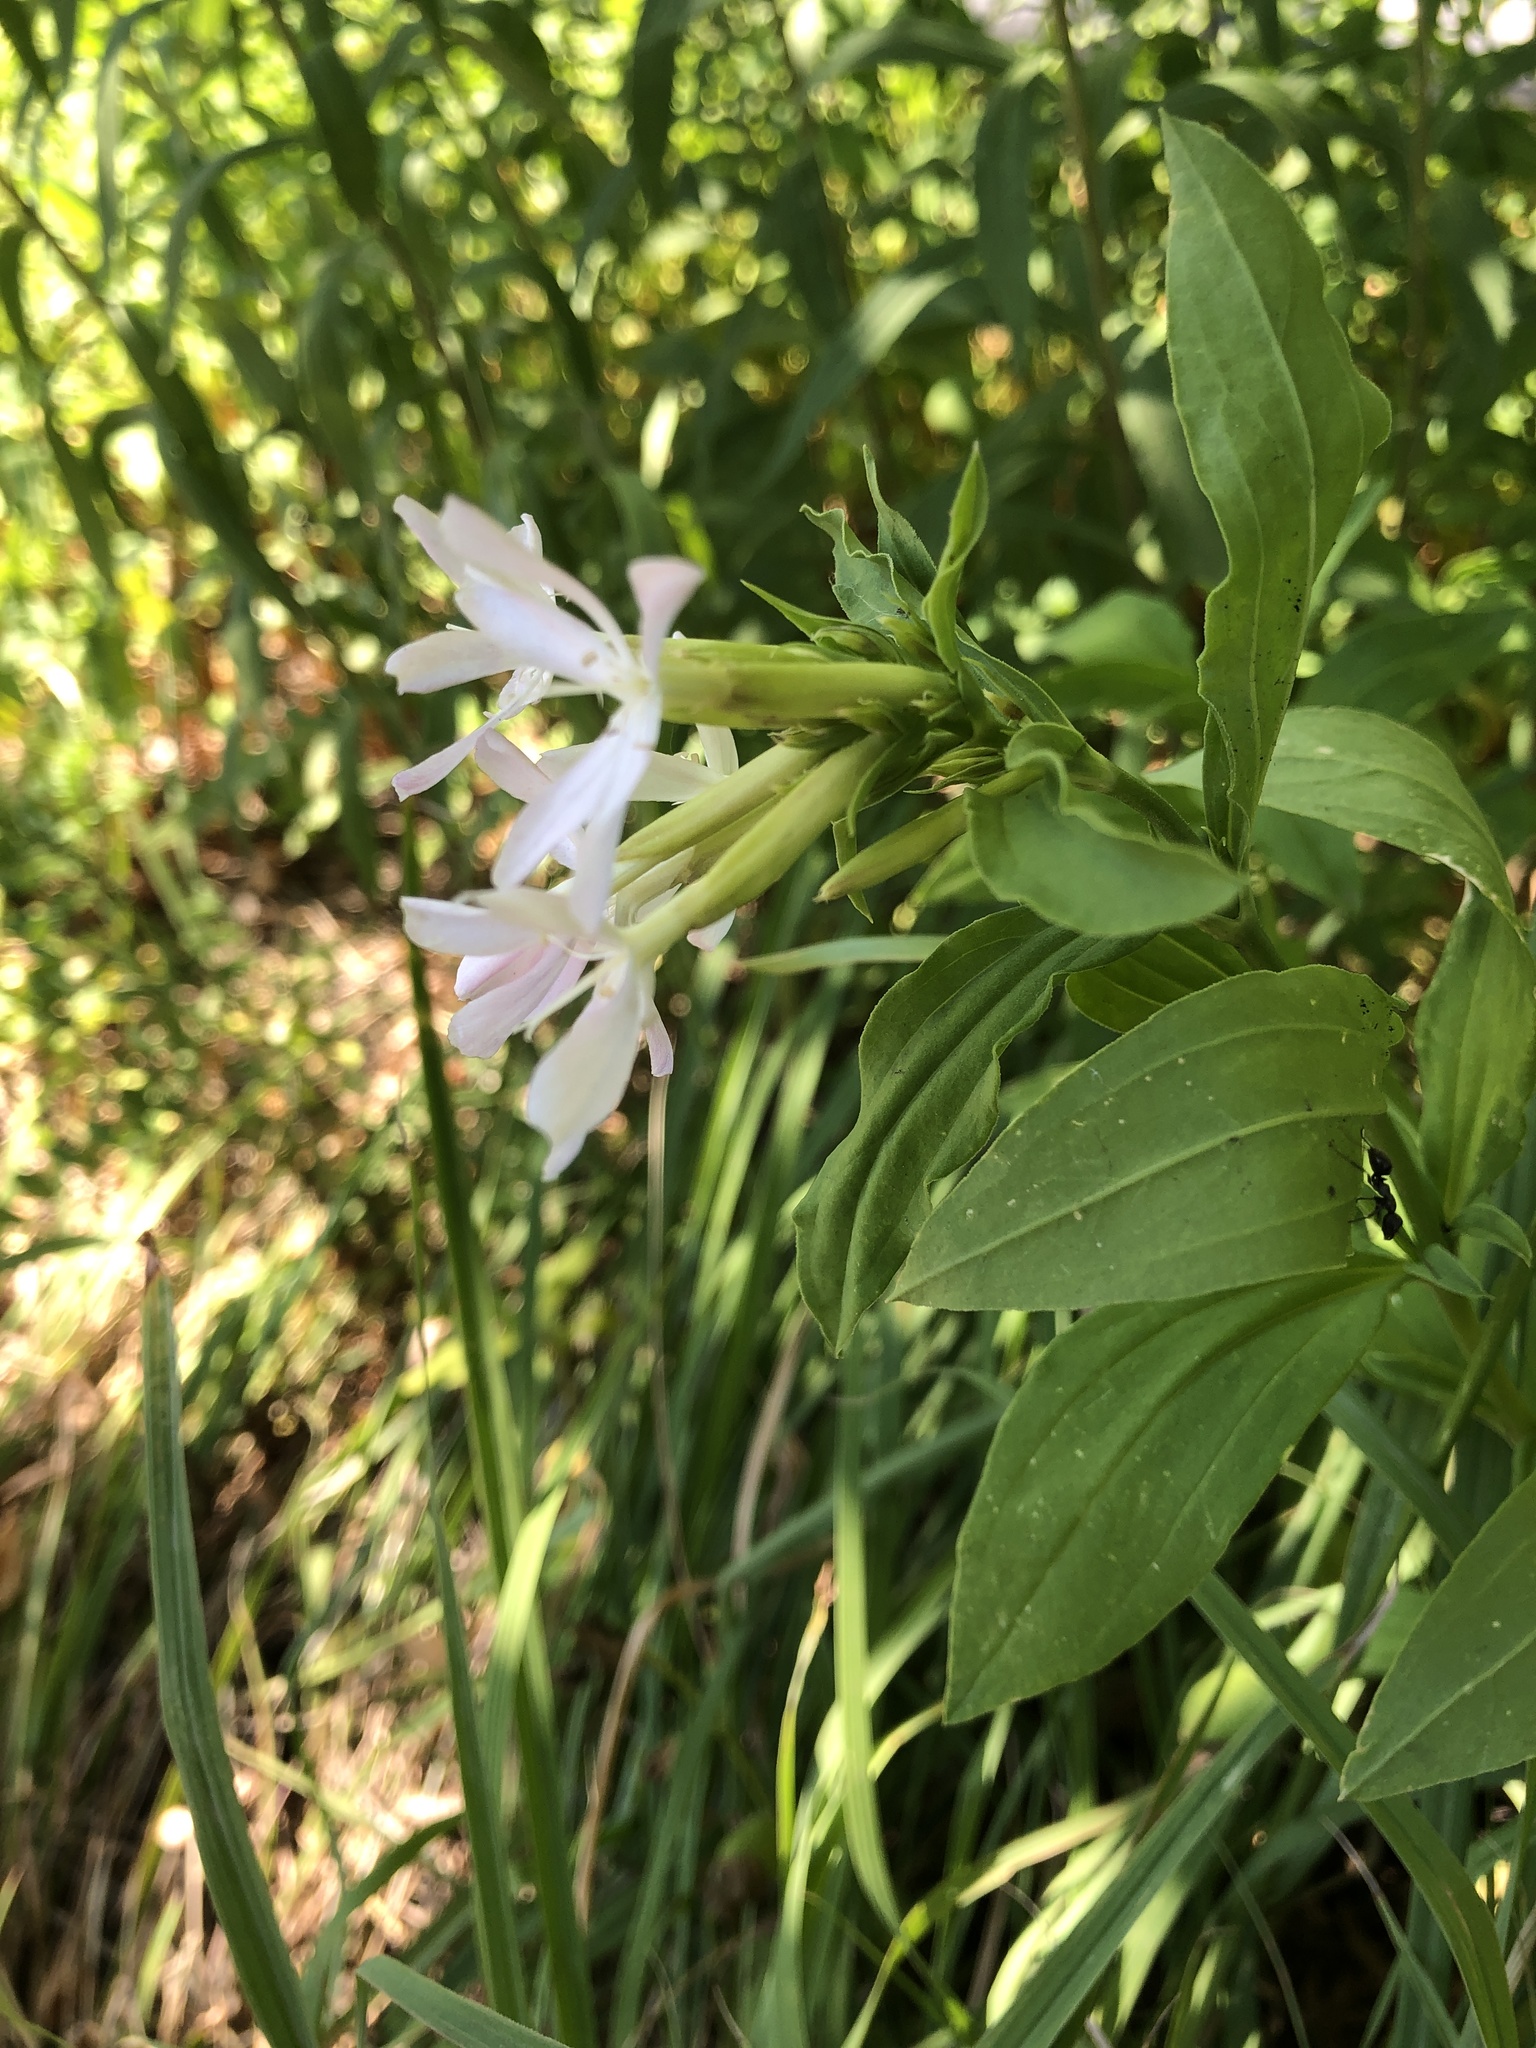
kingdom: Plantae
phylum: Tracheophyta
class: Magnoliopsida
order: Caryophyllales
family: Caryophyllaceae
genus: Saponaria
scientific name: Saponaria officinalis
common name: Soapwort
